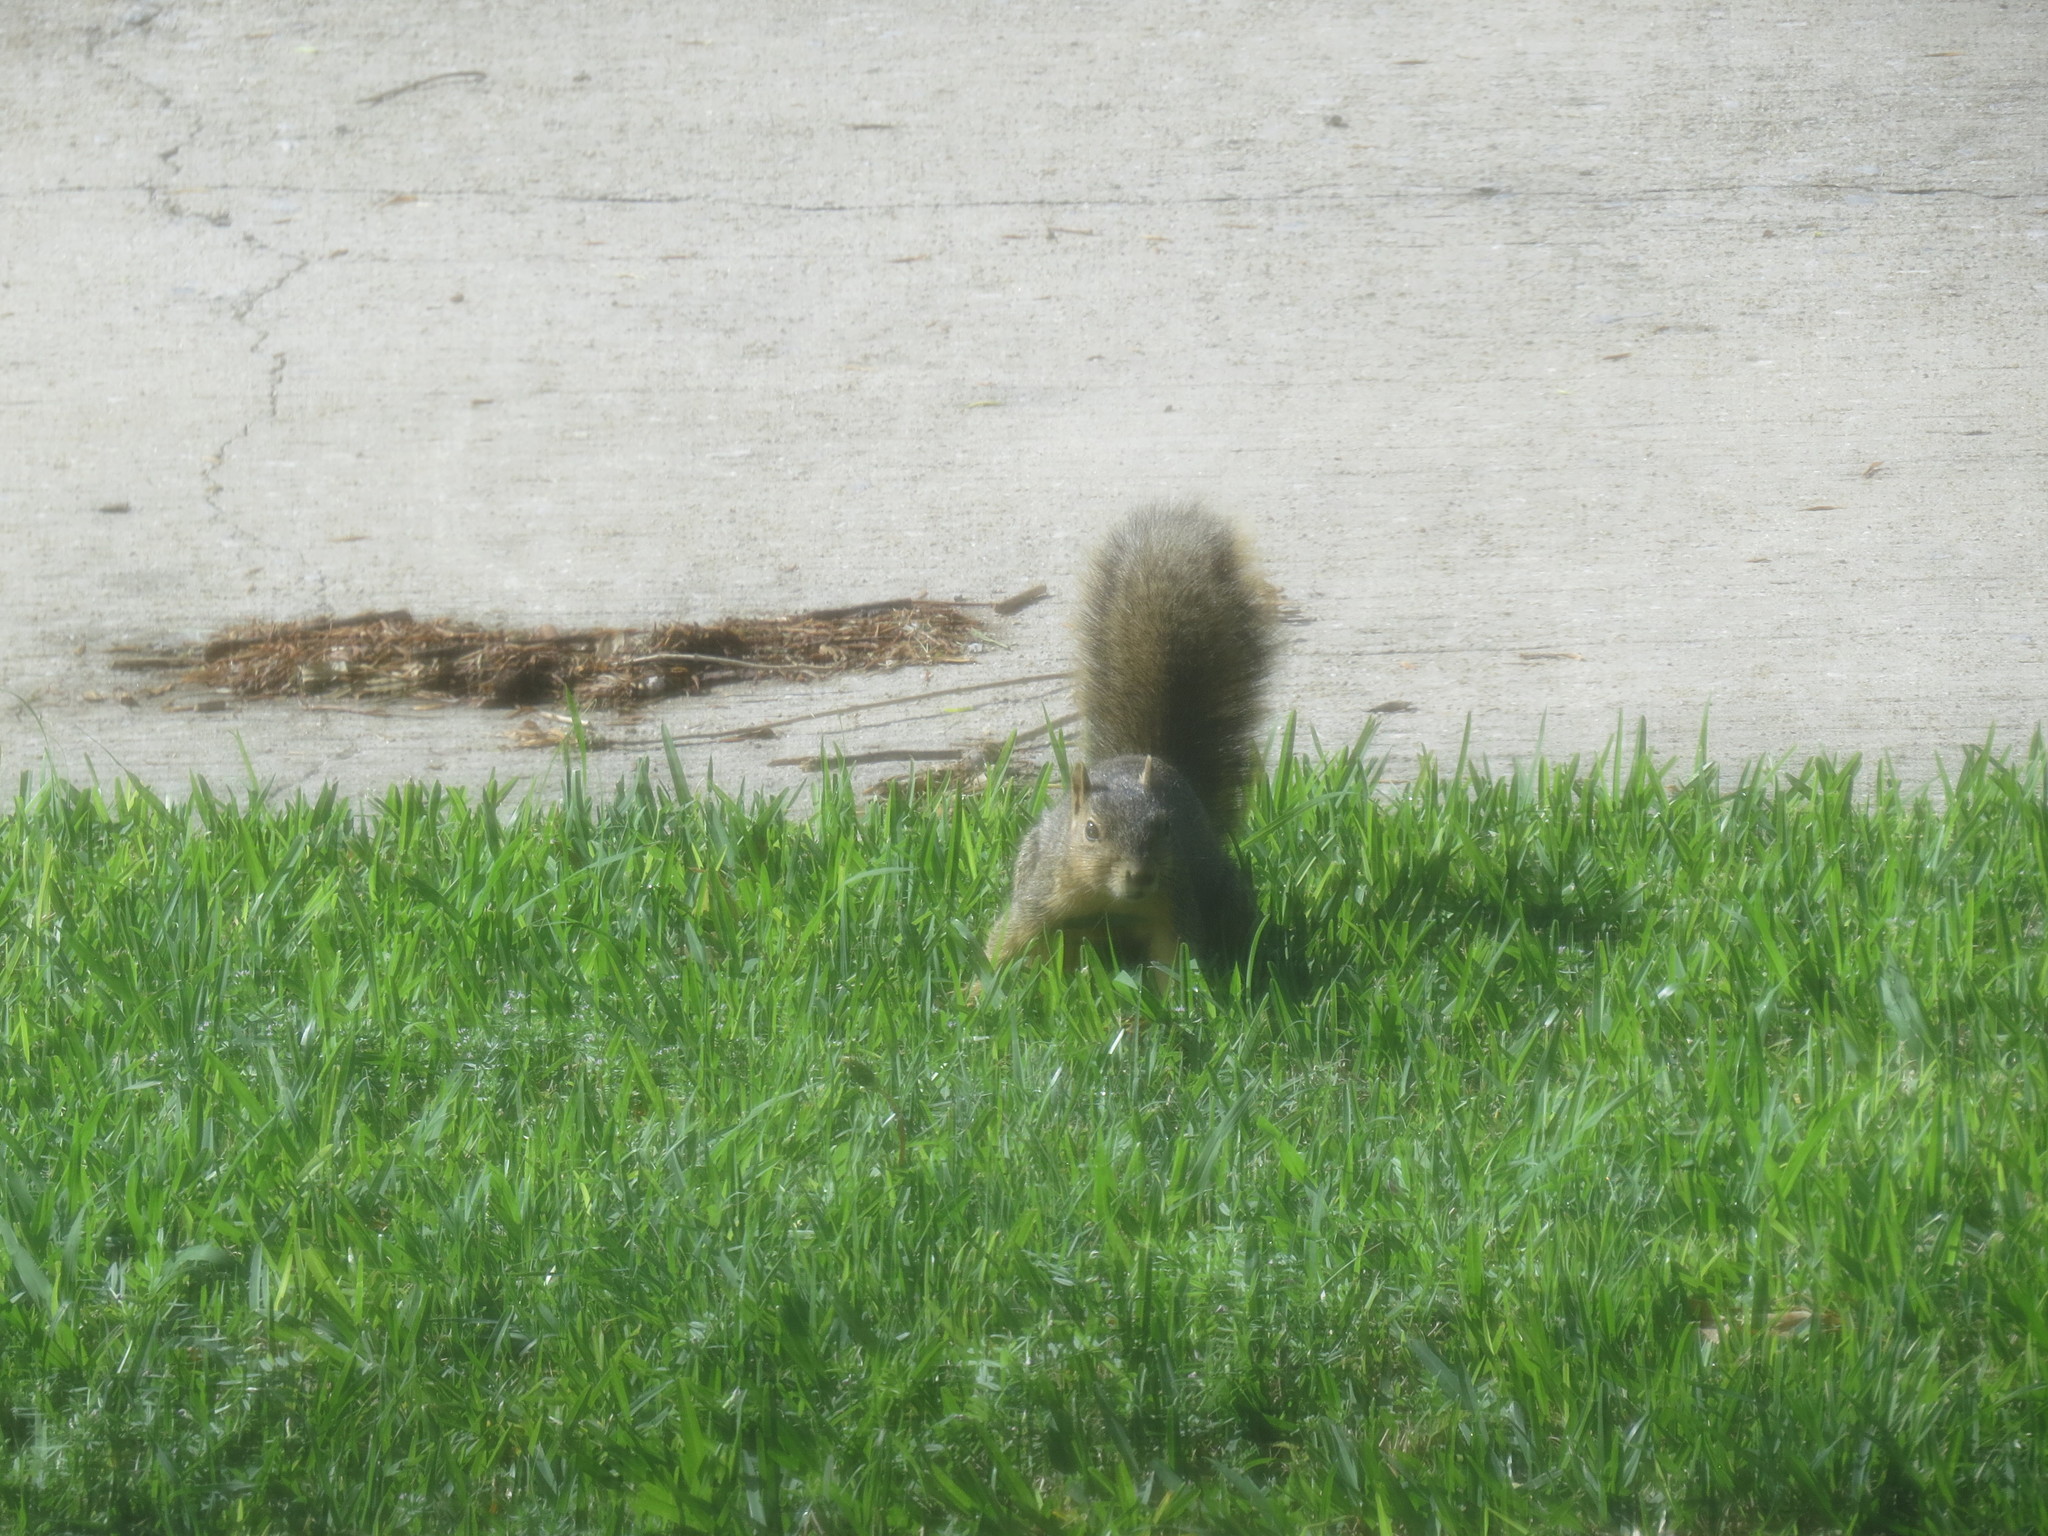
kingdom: Animalia
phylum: Chordata
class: Mammalia
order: Rodentia
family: Sciuridae
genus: Sciurus
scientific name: Sciurus niger
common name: Fox squirrel
